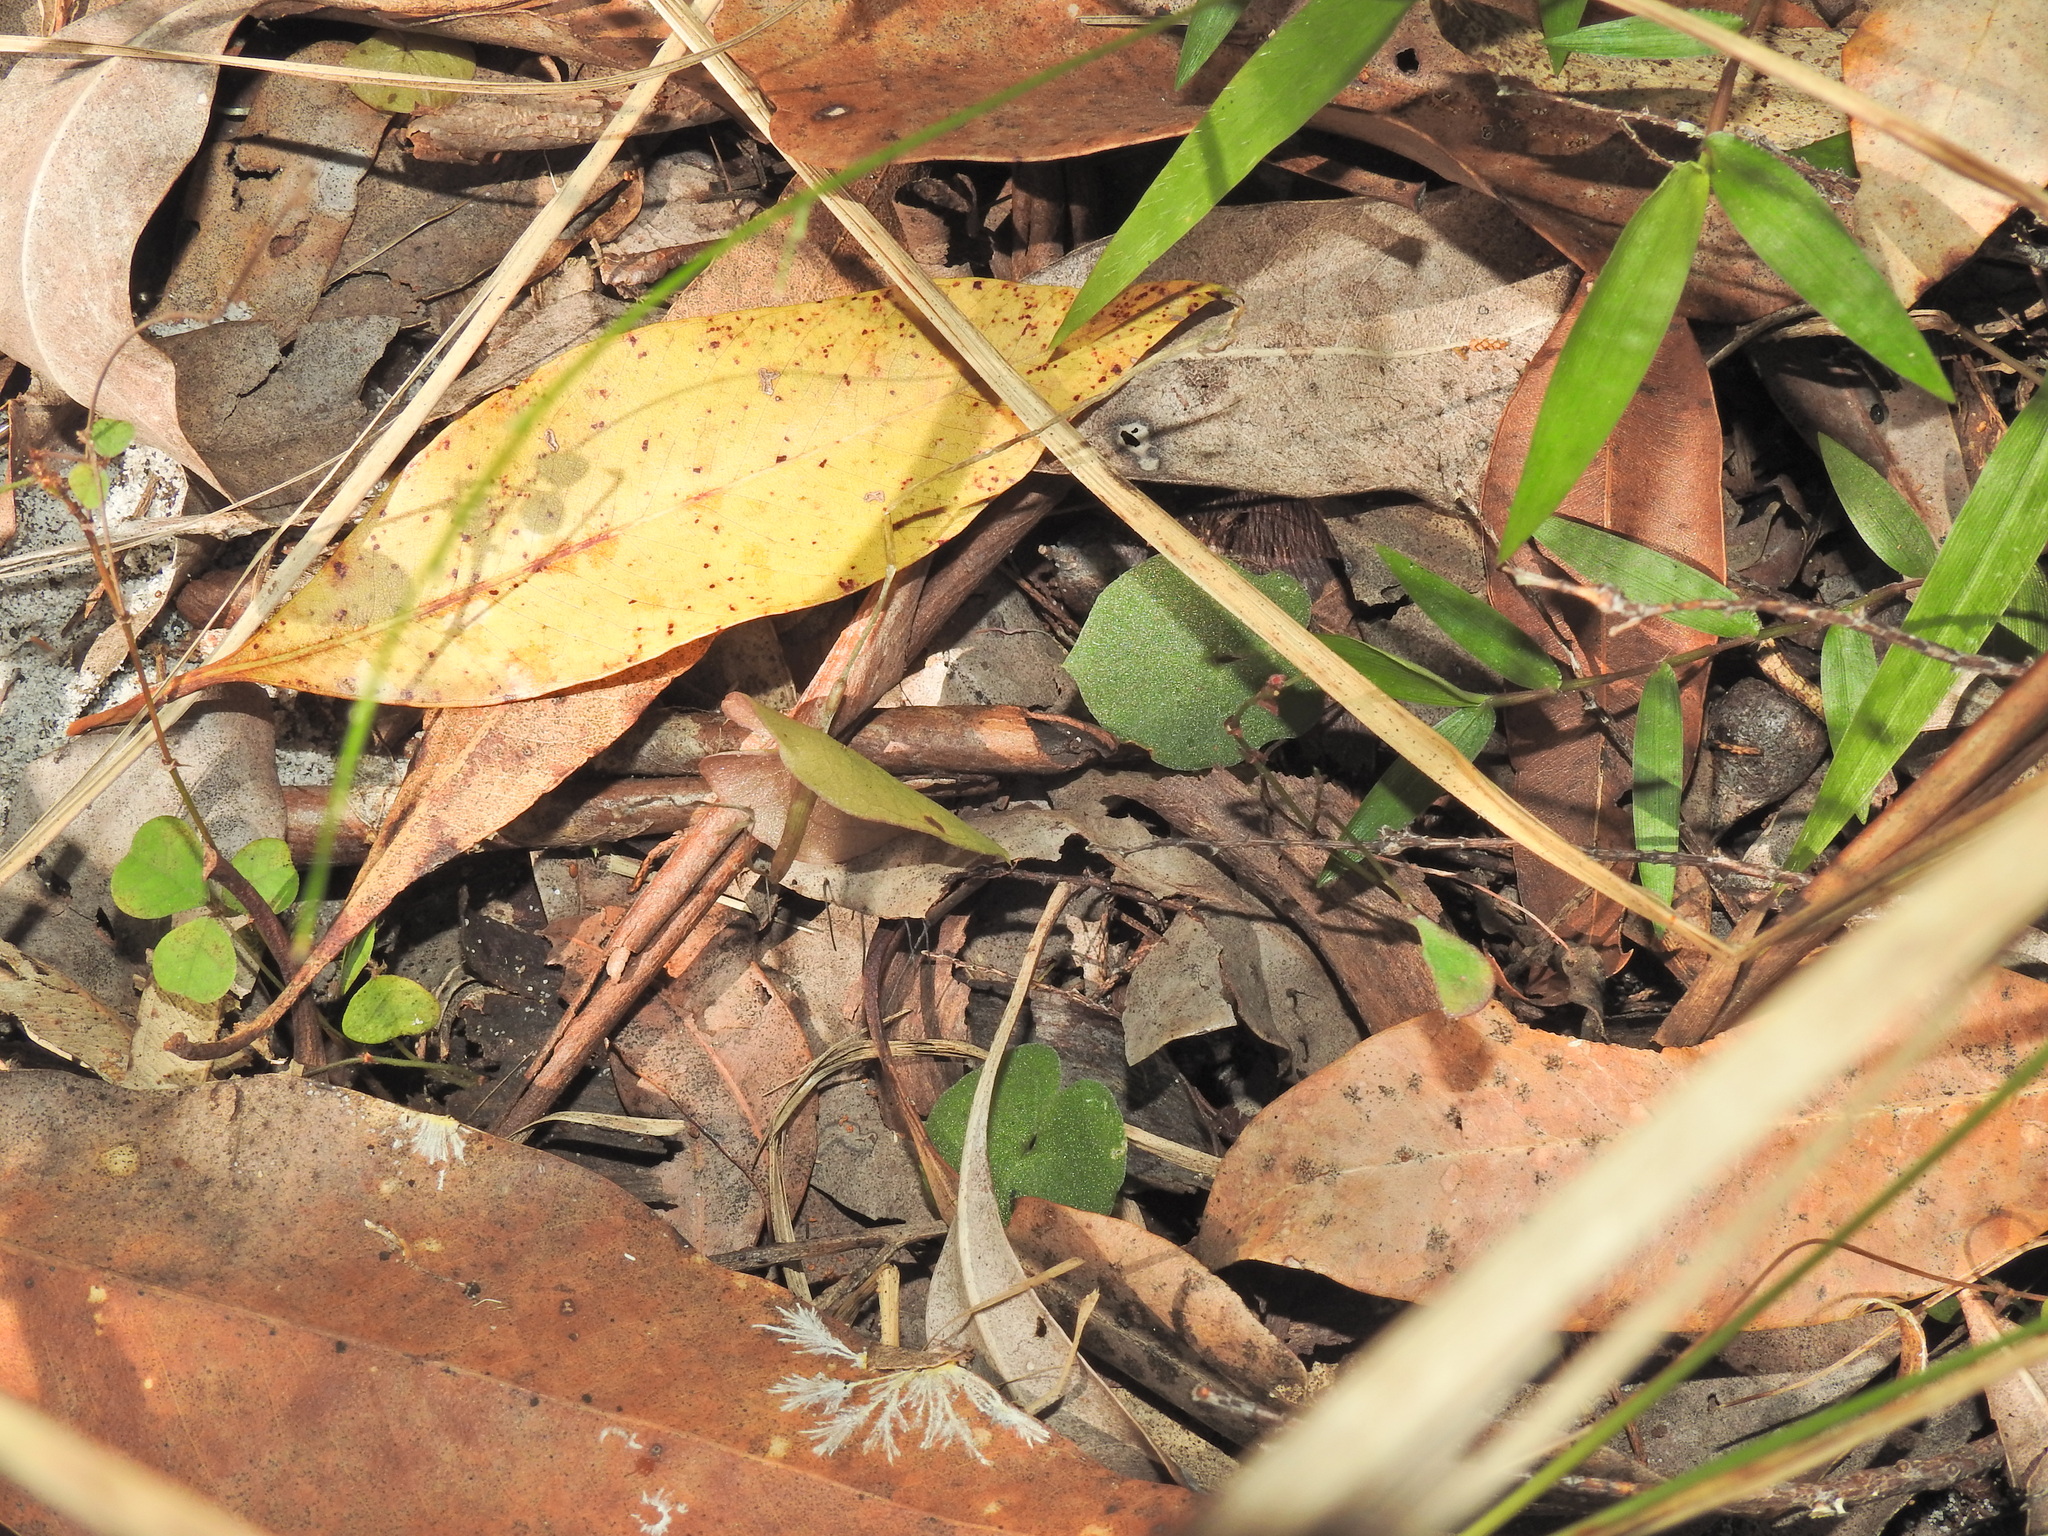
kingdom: Plantae
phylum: Tracheophyta
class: Liliopsida
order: Asparagales
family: Orchidaceae
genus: Acianthus
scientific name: Acianthus fornicatus
